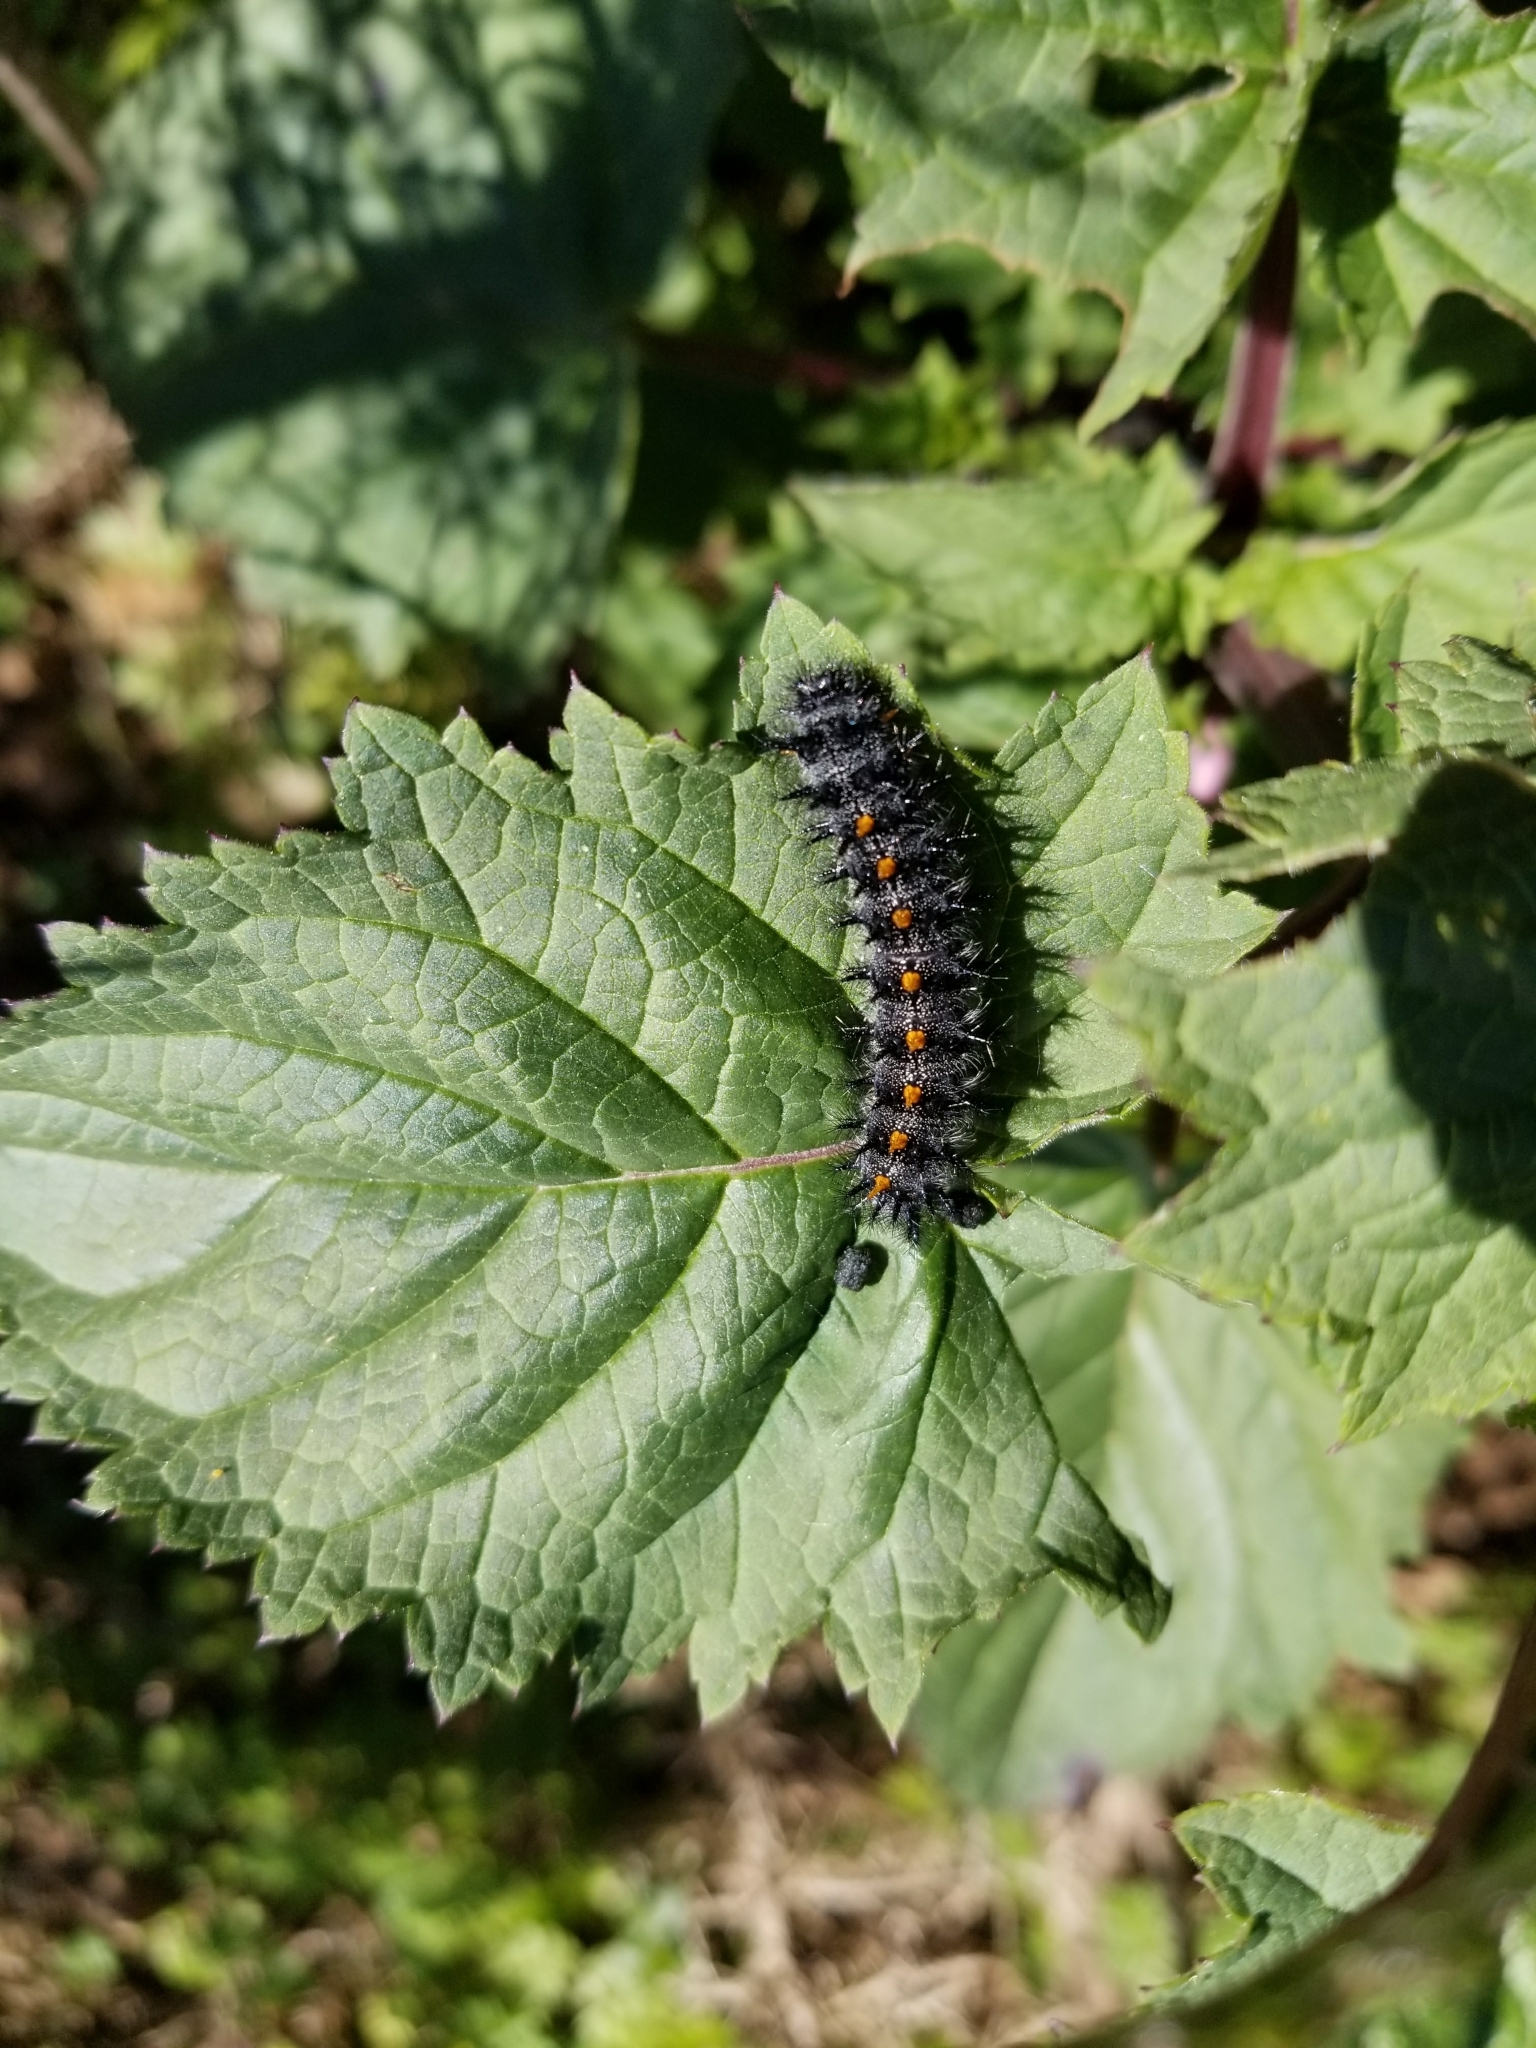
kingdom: Animalia
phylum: Arthropoda
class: Insecta
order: Lepidoptera
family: Nymphalidae
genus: Occidryas
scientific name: Occidryas chalcedona
